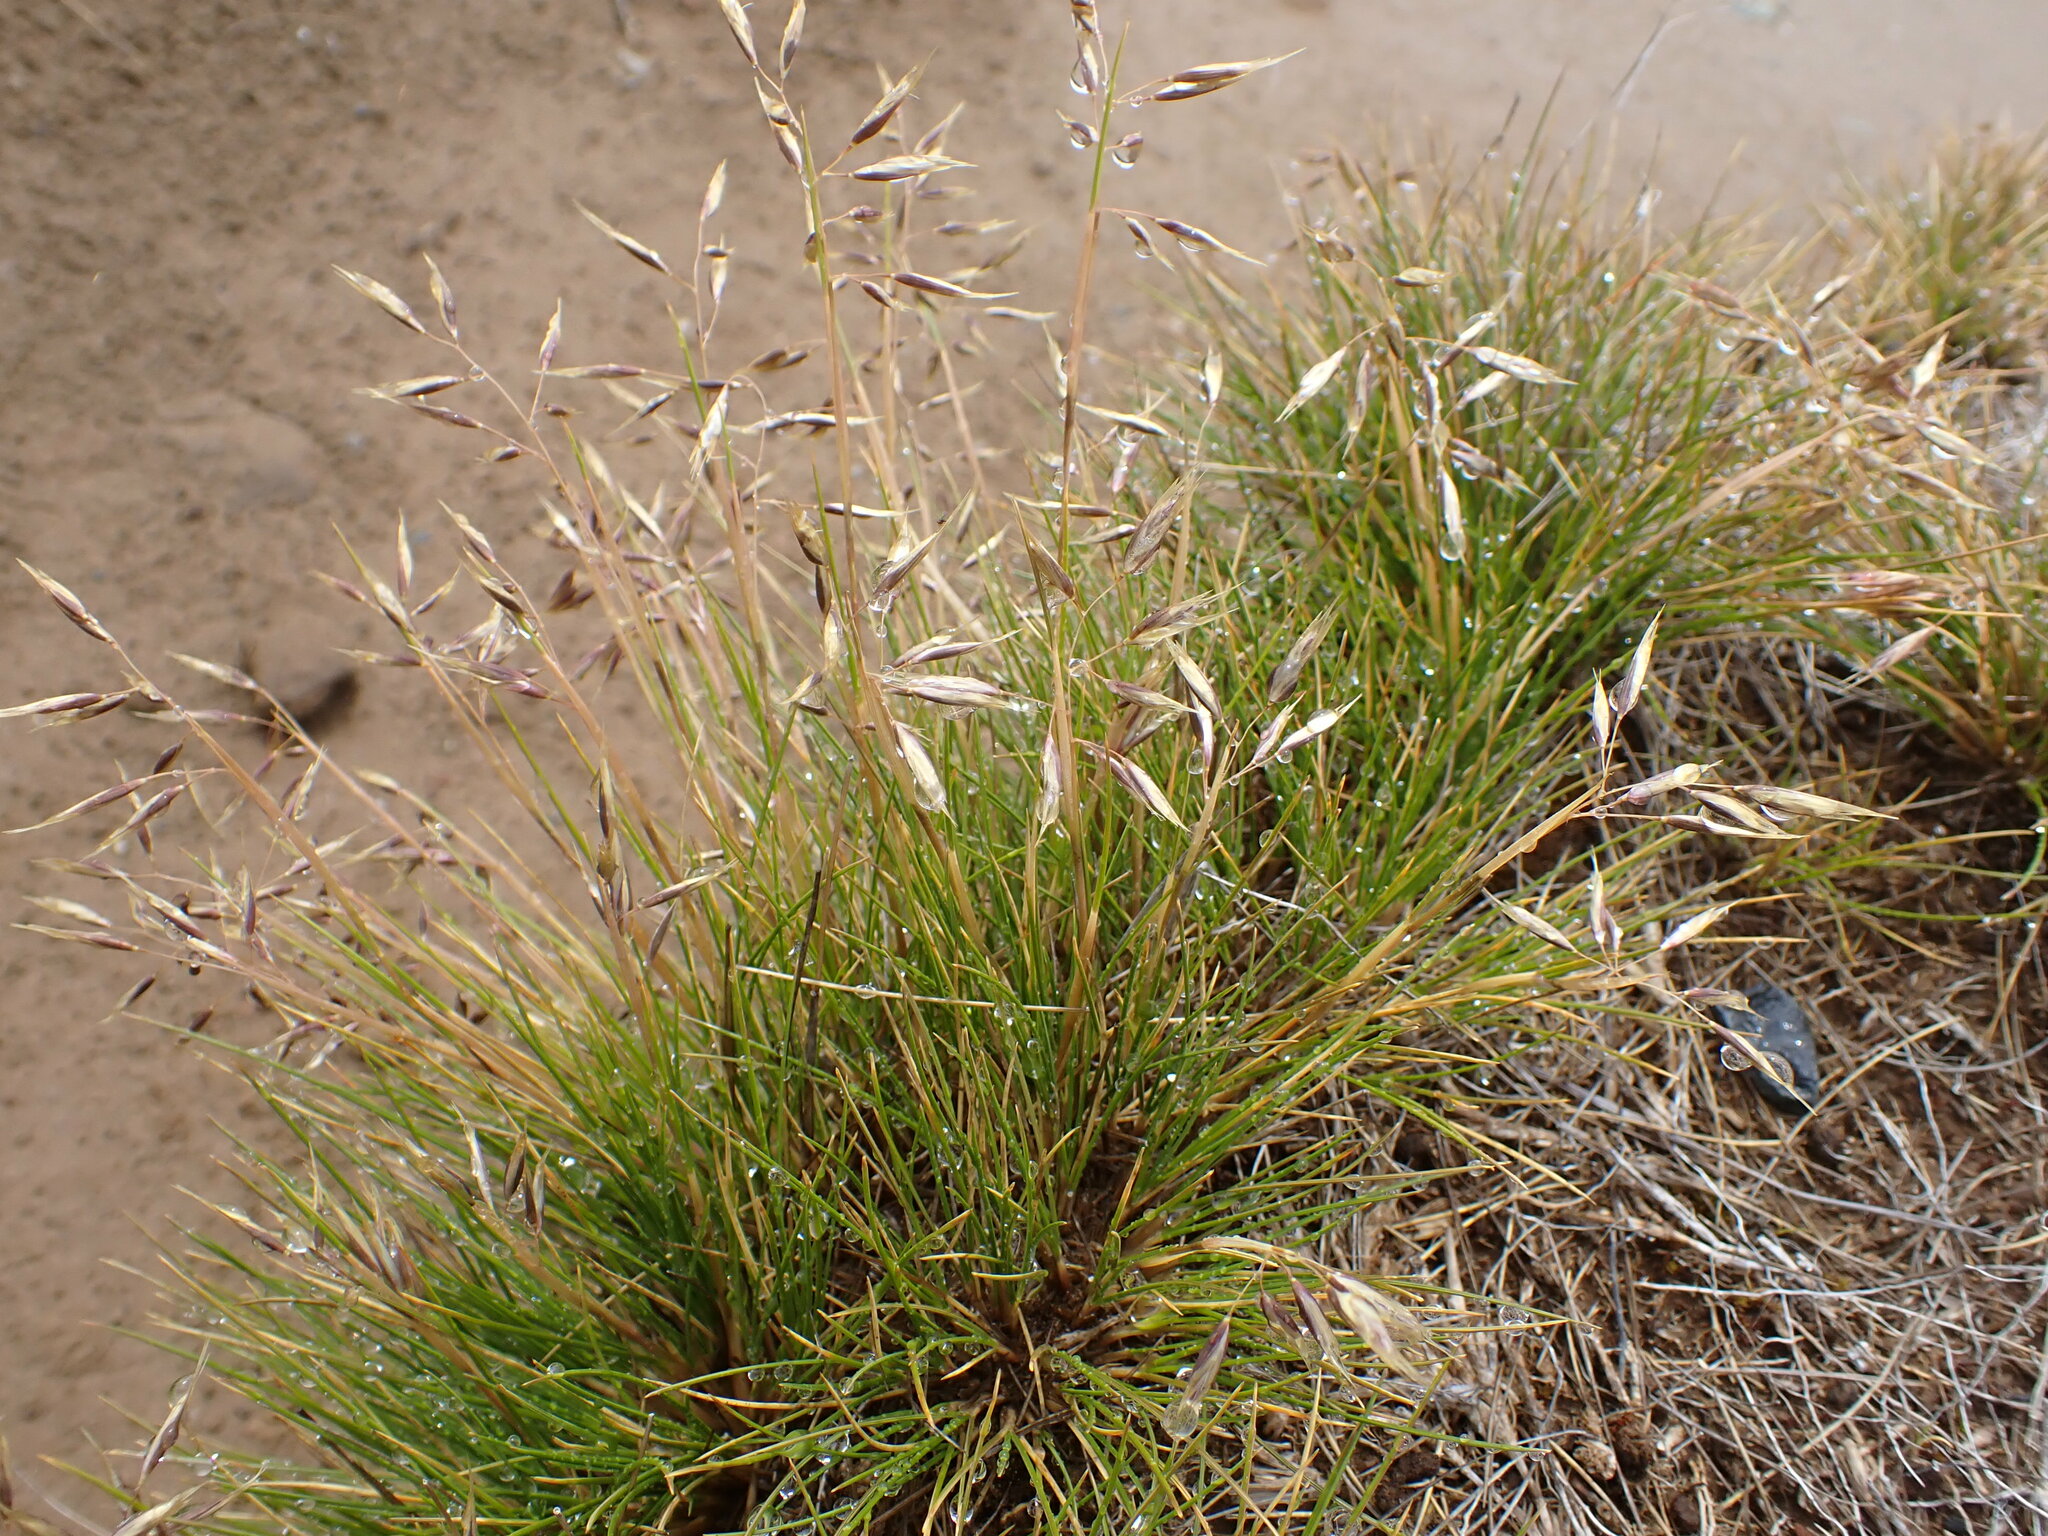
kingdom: Plantae
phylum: Tracheophyta
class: Liliopsida
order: Poales
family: Poaceae
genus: Chionochloa
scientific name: Chionochloa oreophila
